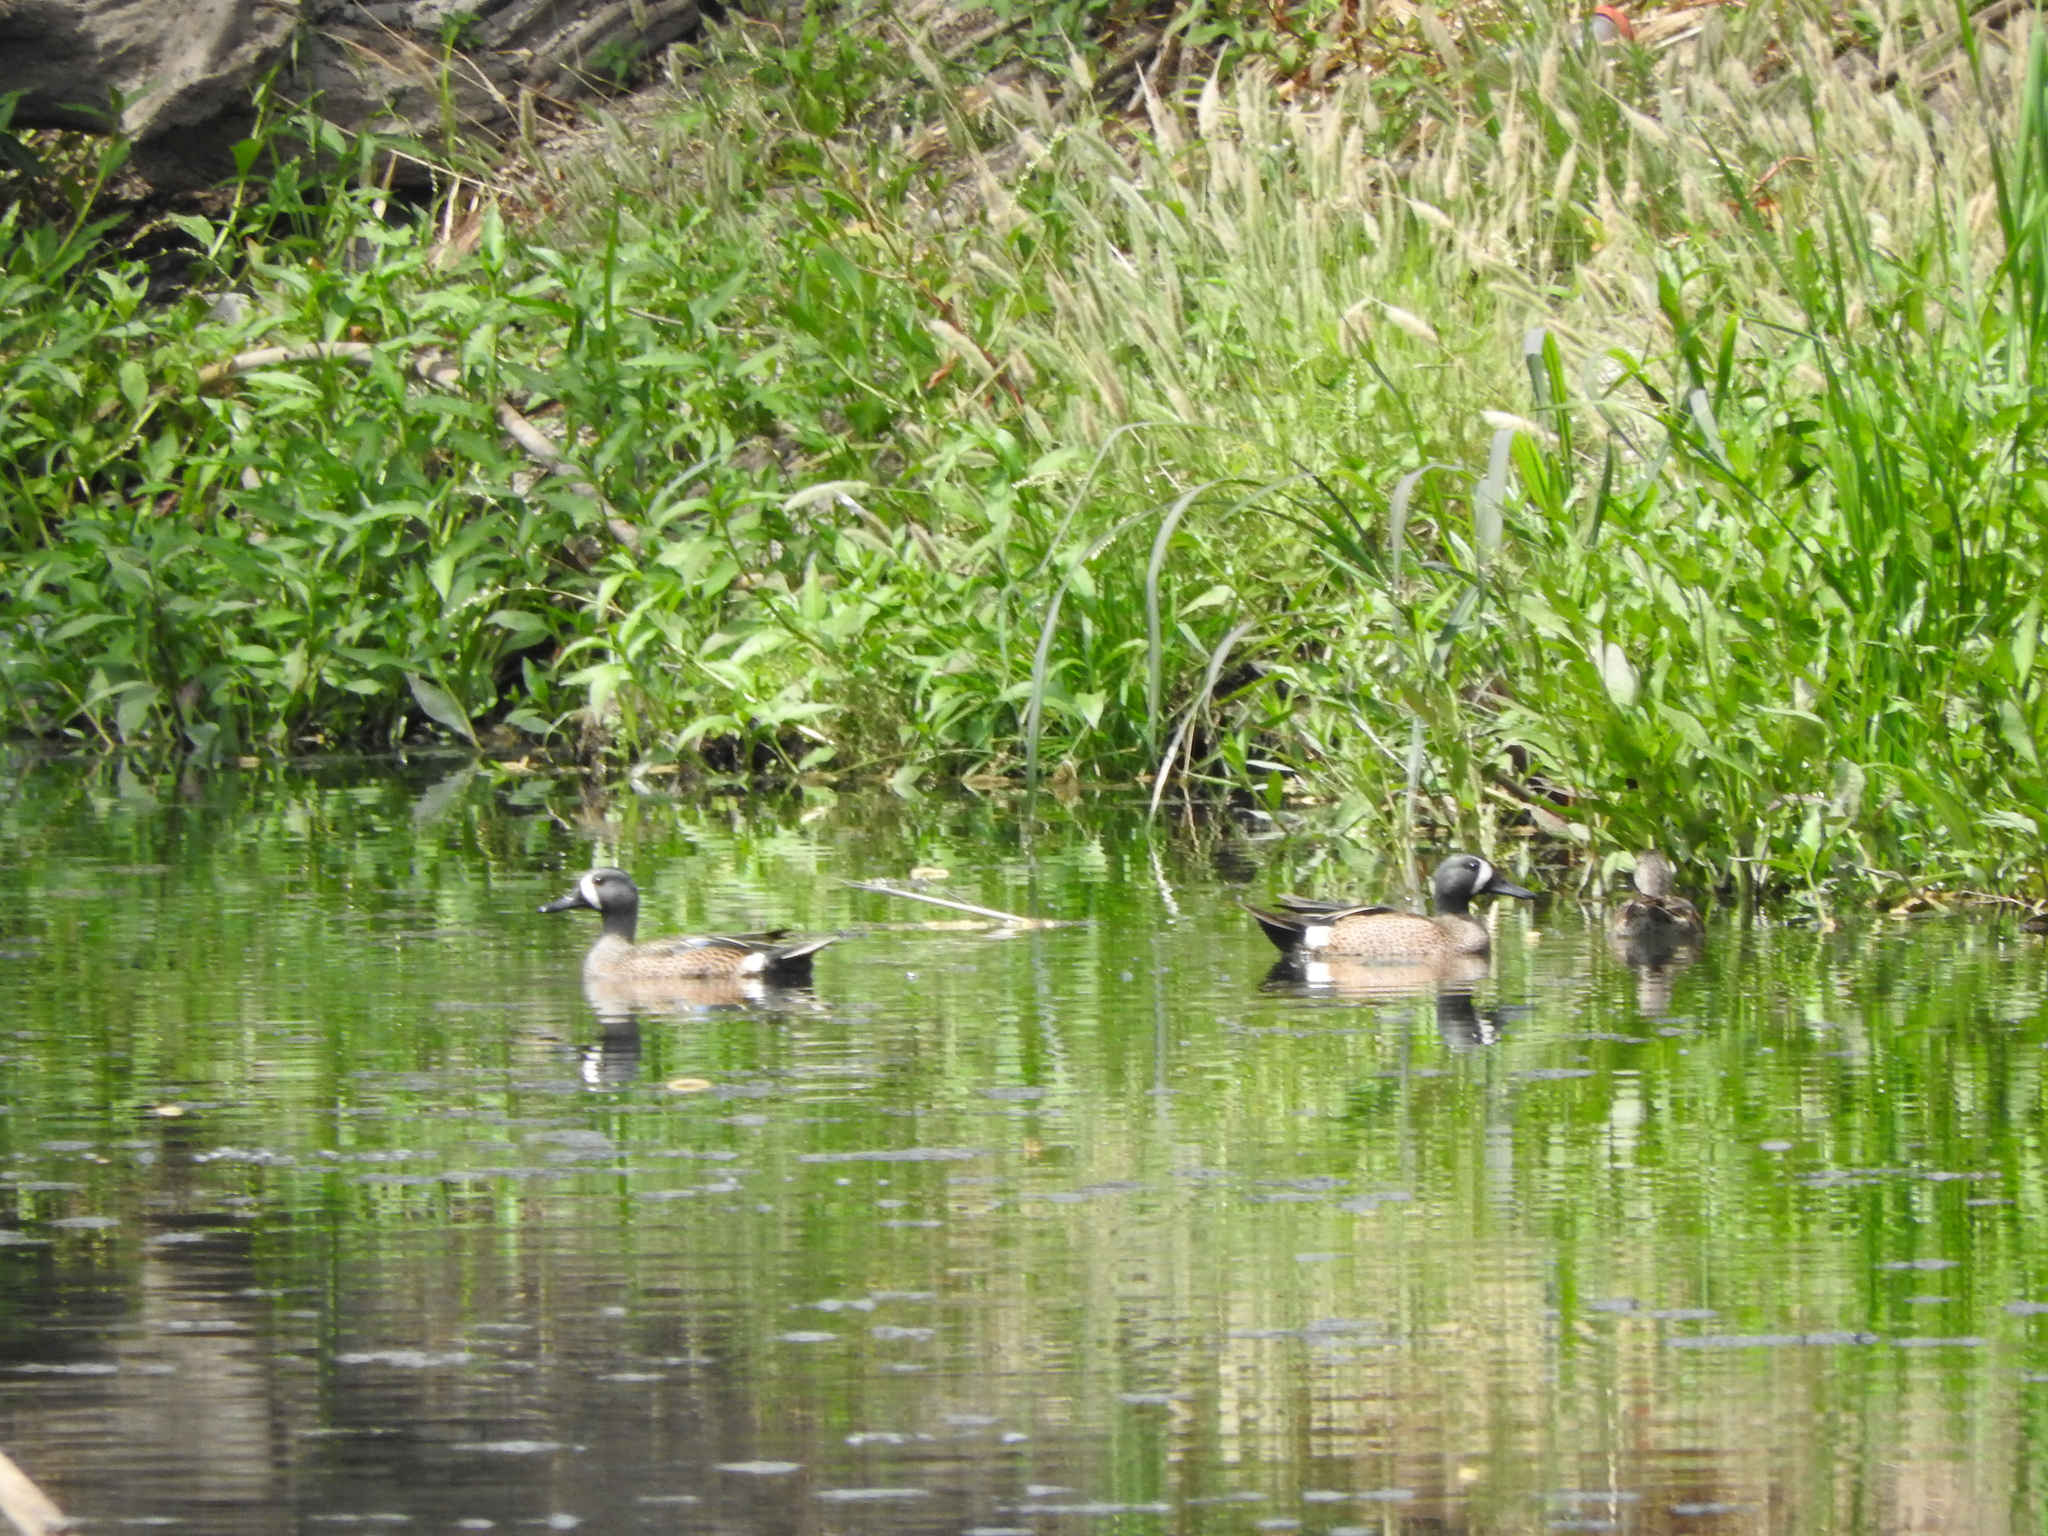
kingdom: Animalia
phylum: Chordata
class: Aves
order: Anseriformes
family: Anatidae
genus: Spatula
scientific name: Spatula discors
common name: Blue-winged teal
